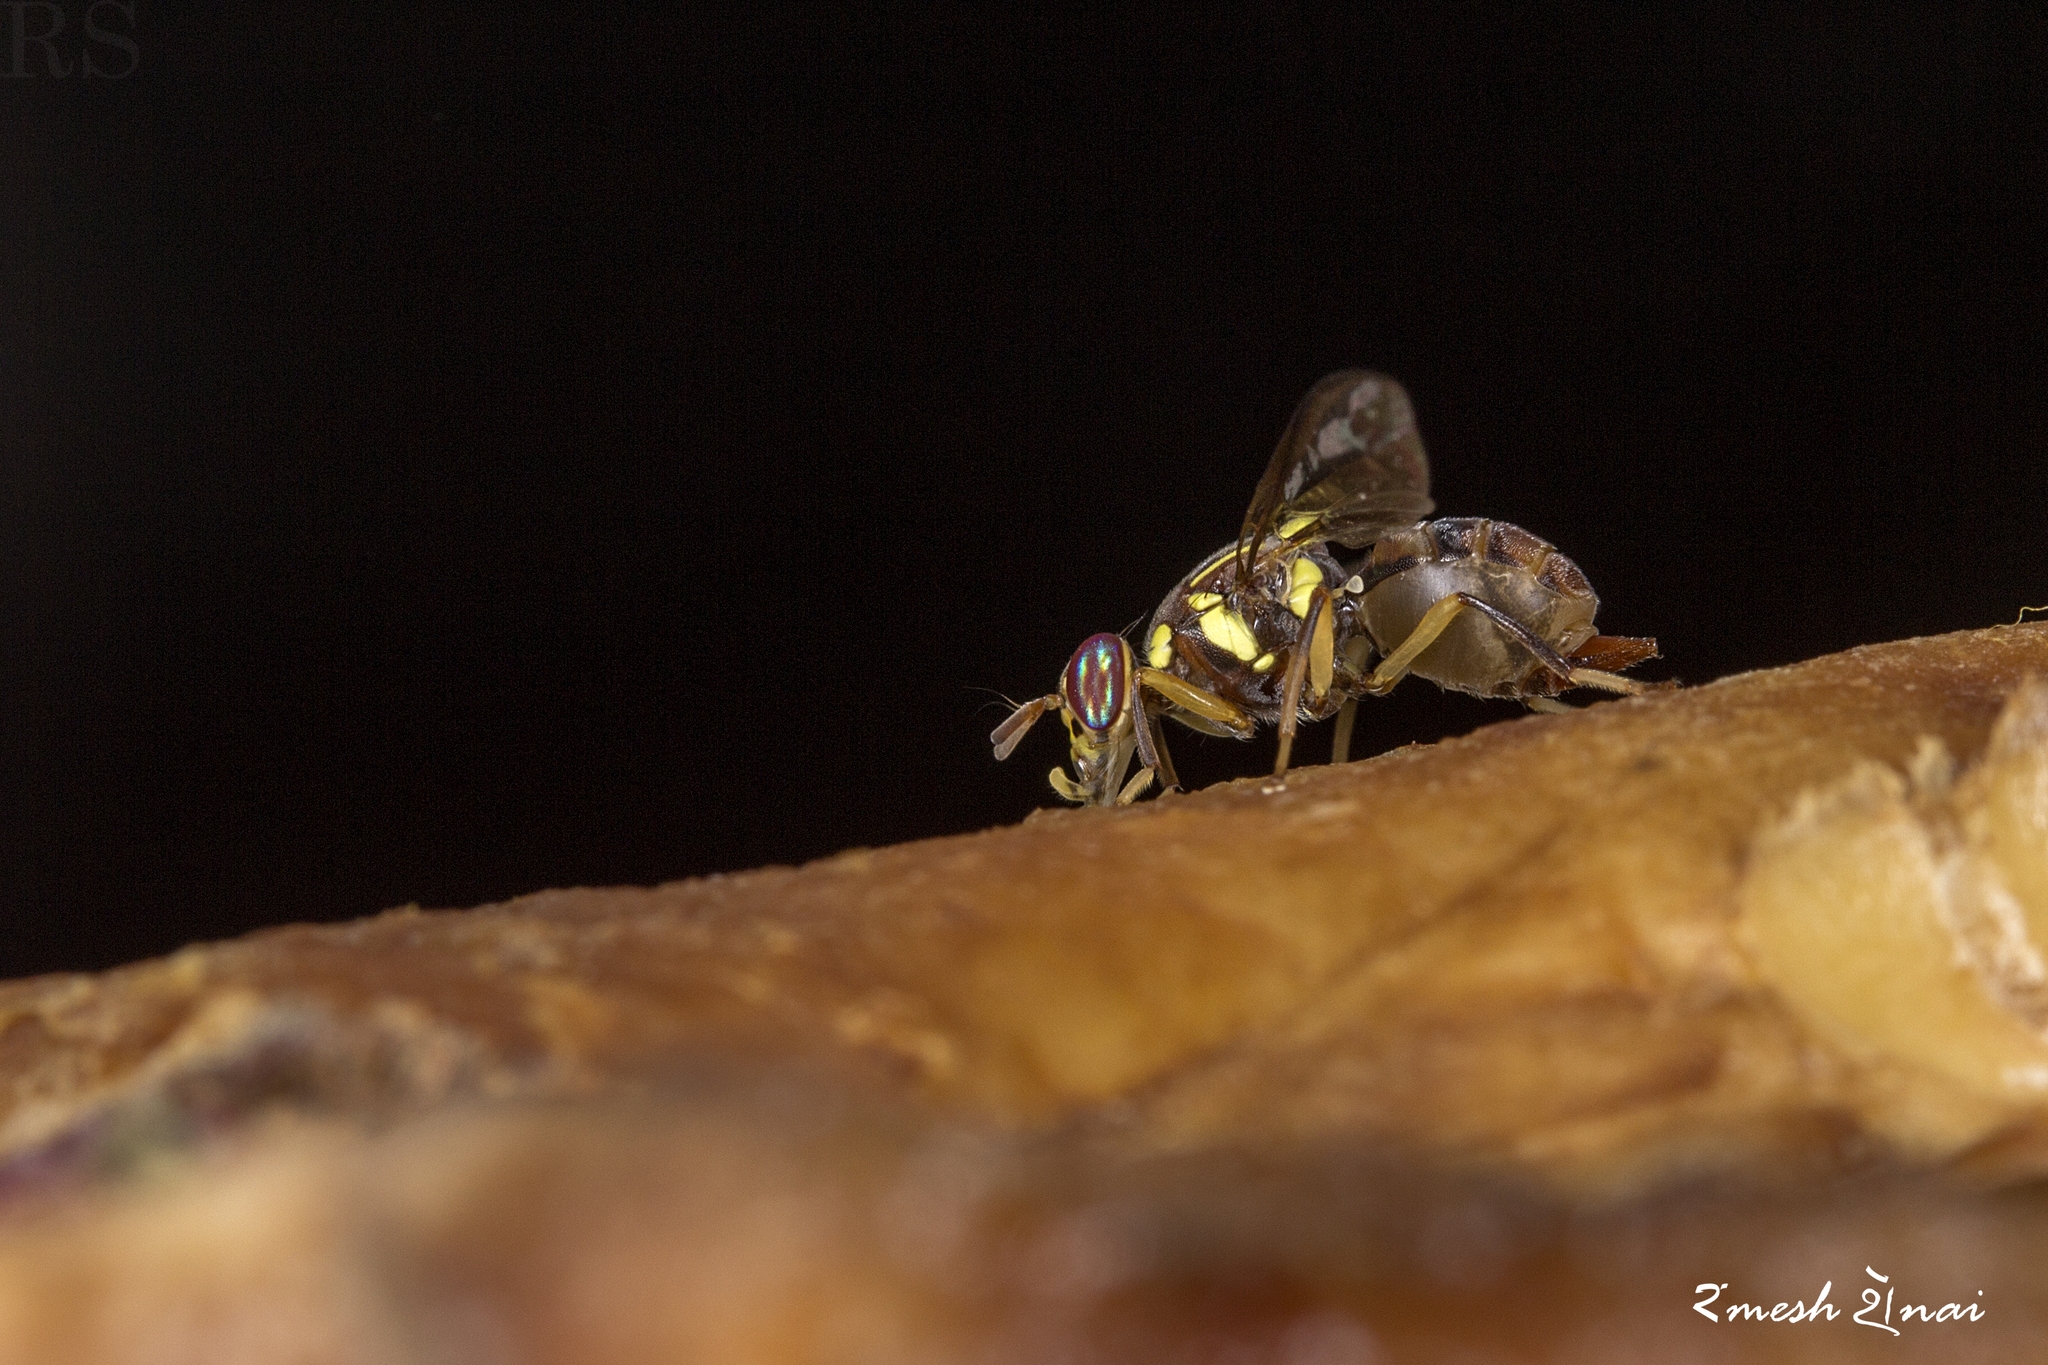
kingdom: Animalia
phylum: Arthropoda
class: Insecta
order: Diptera
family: Tephritidae
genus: Bactrocera
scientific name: Bactrocera dorsalis
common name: Oriental fruit fly
